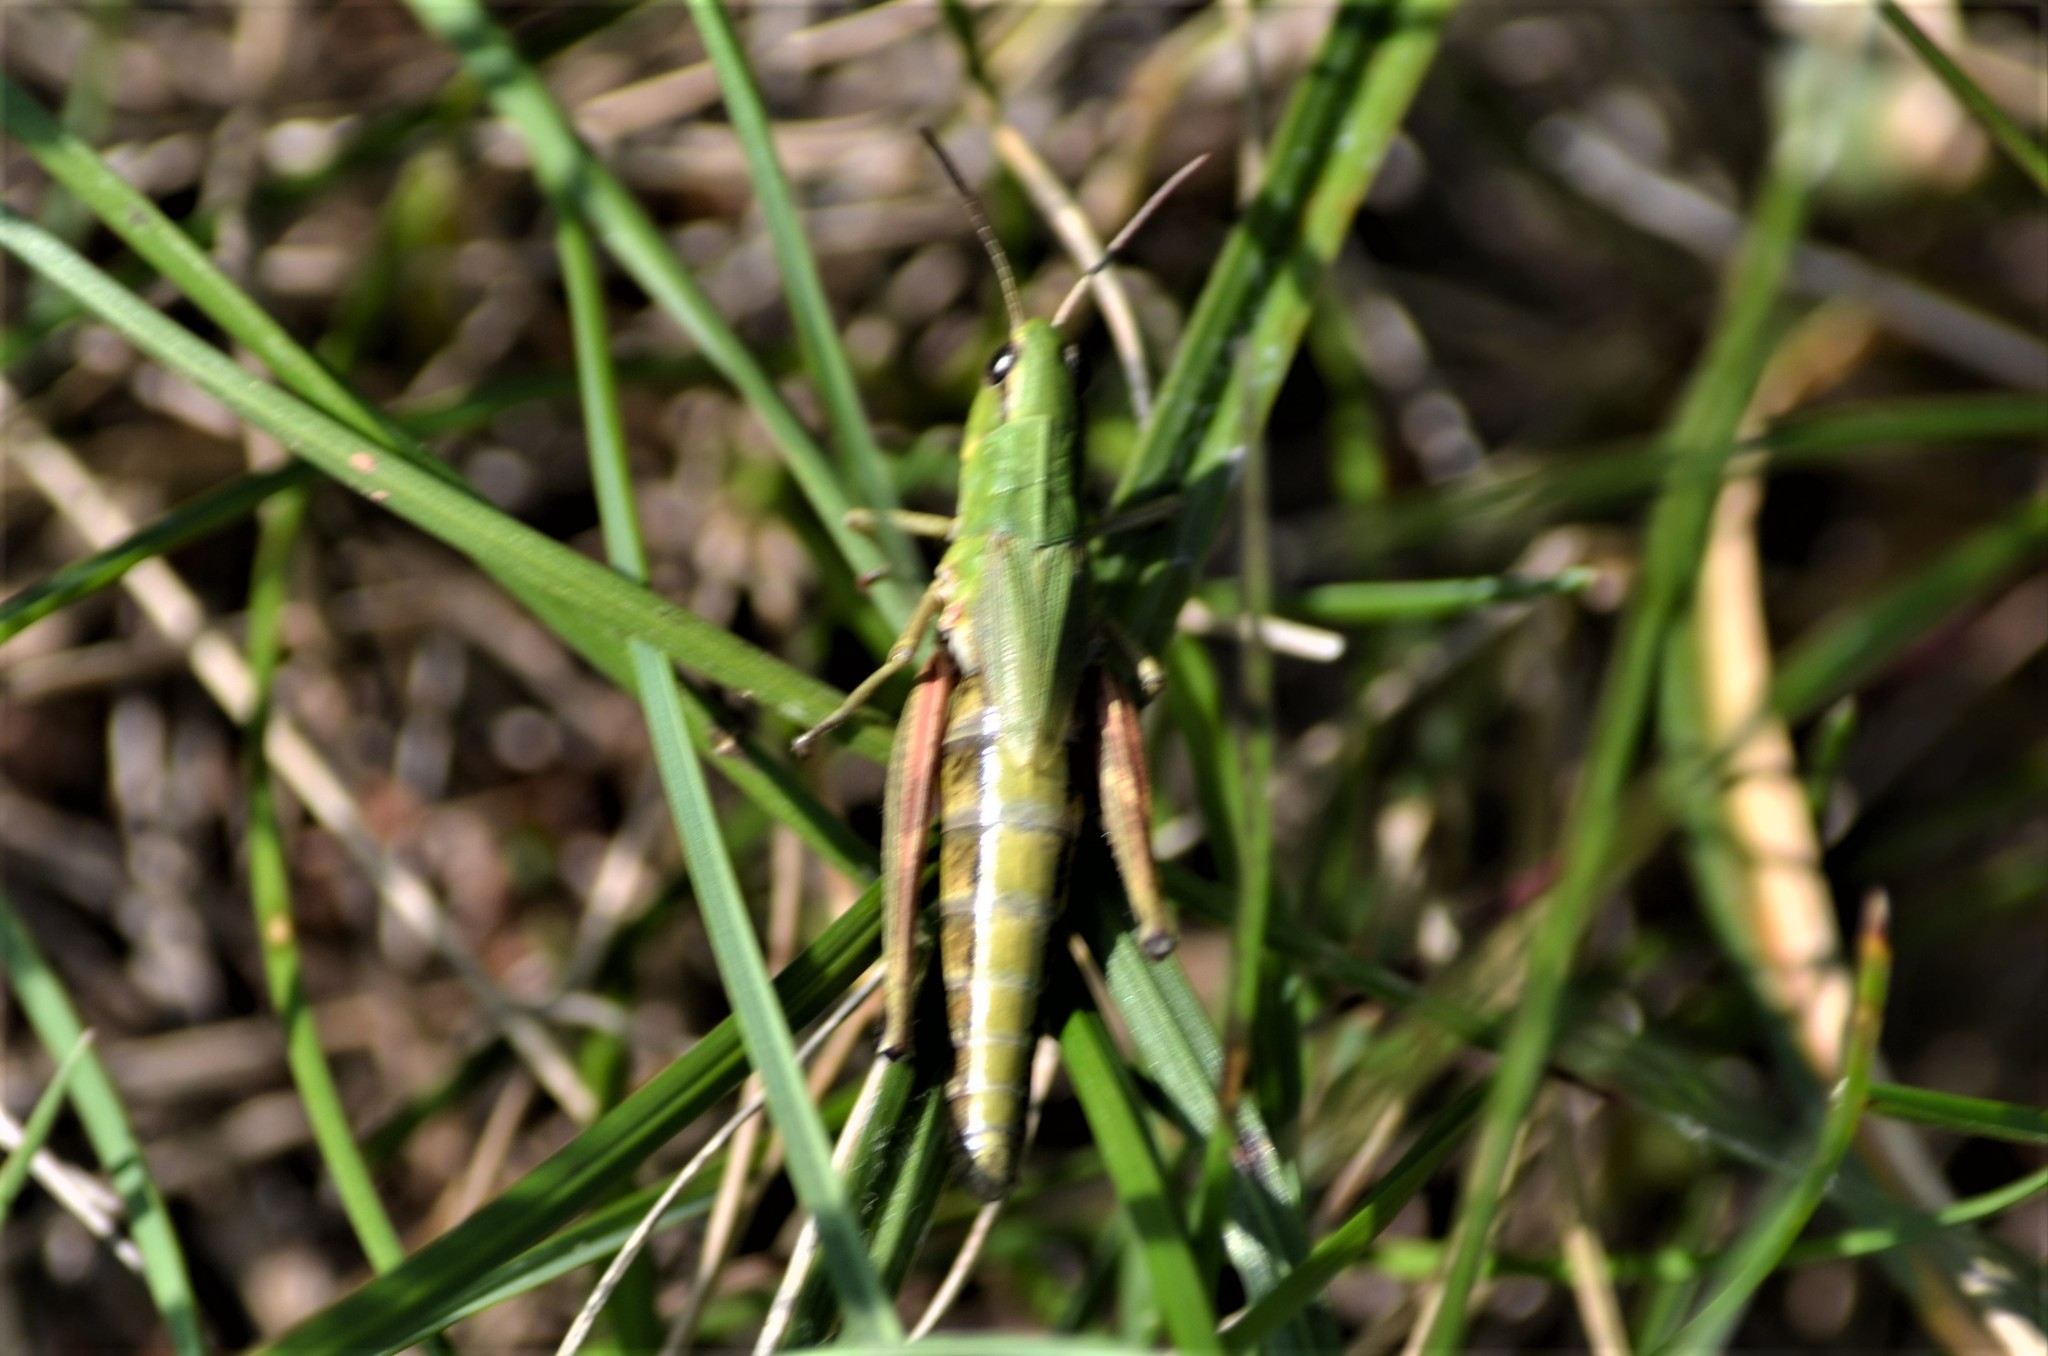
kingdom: Animalia
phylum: Arthropoda
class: Insecta
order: Orthoptera
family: Acrididae
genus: Pseudochorthippus
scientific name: Pseudochorthippus parallelus
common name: Meadow grasshopper
